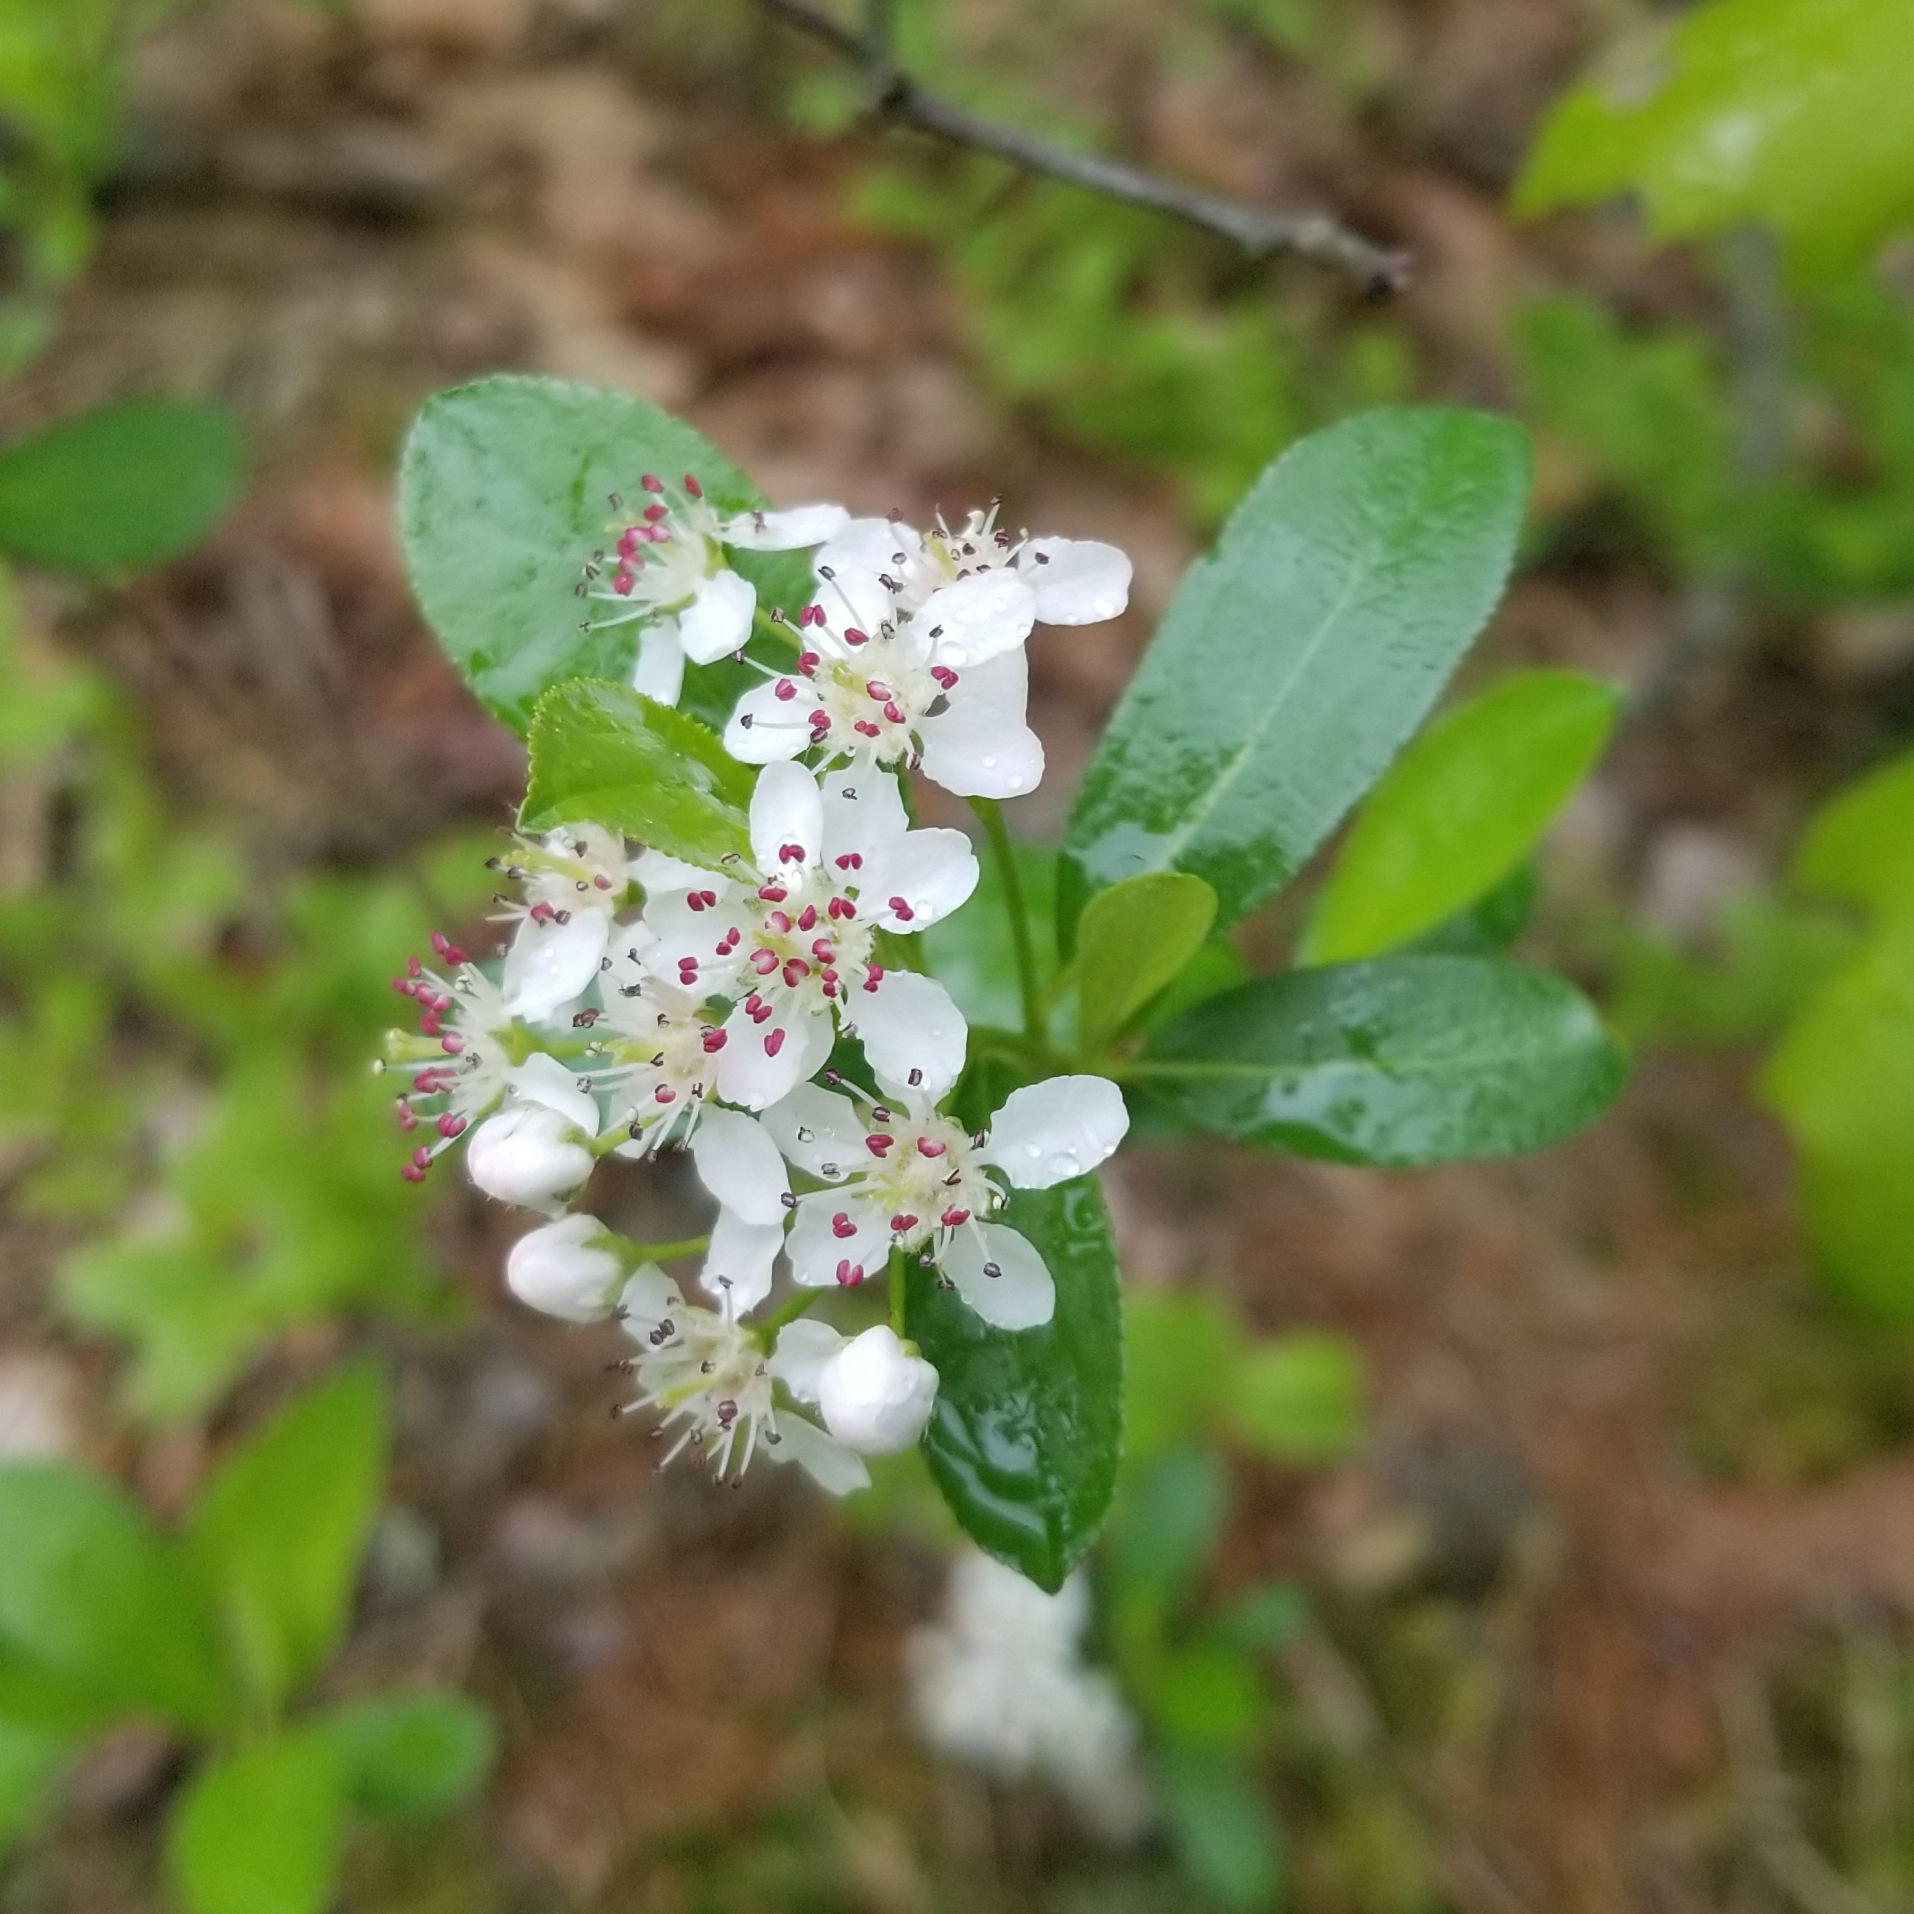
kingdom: Plantae
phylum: Tracheophyta
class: Magnoliopsida
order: Rosales
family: Rosaceae
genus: Aronia
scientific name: Aronia melanocarpa
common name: Black chokeberry
